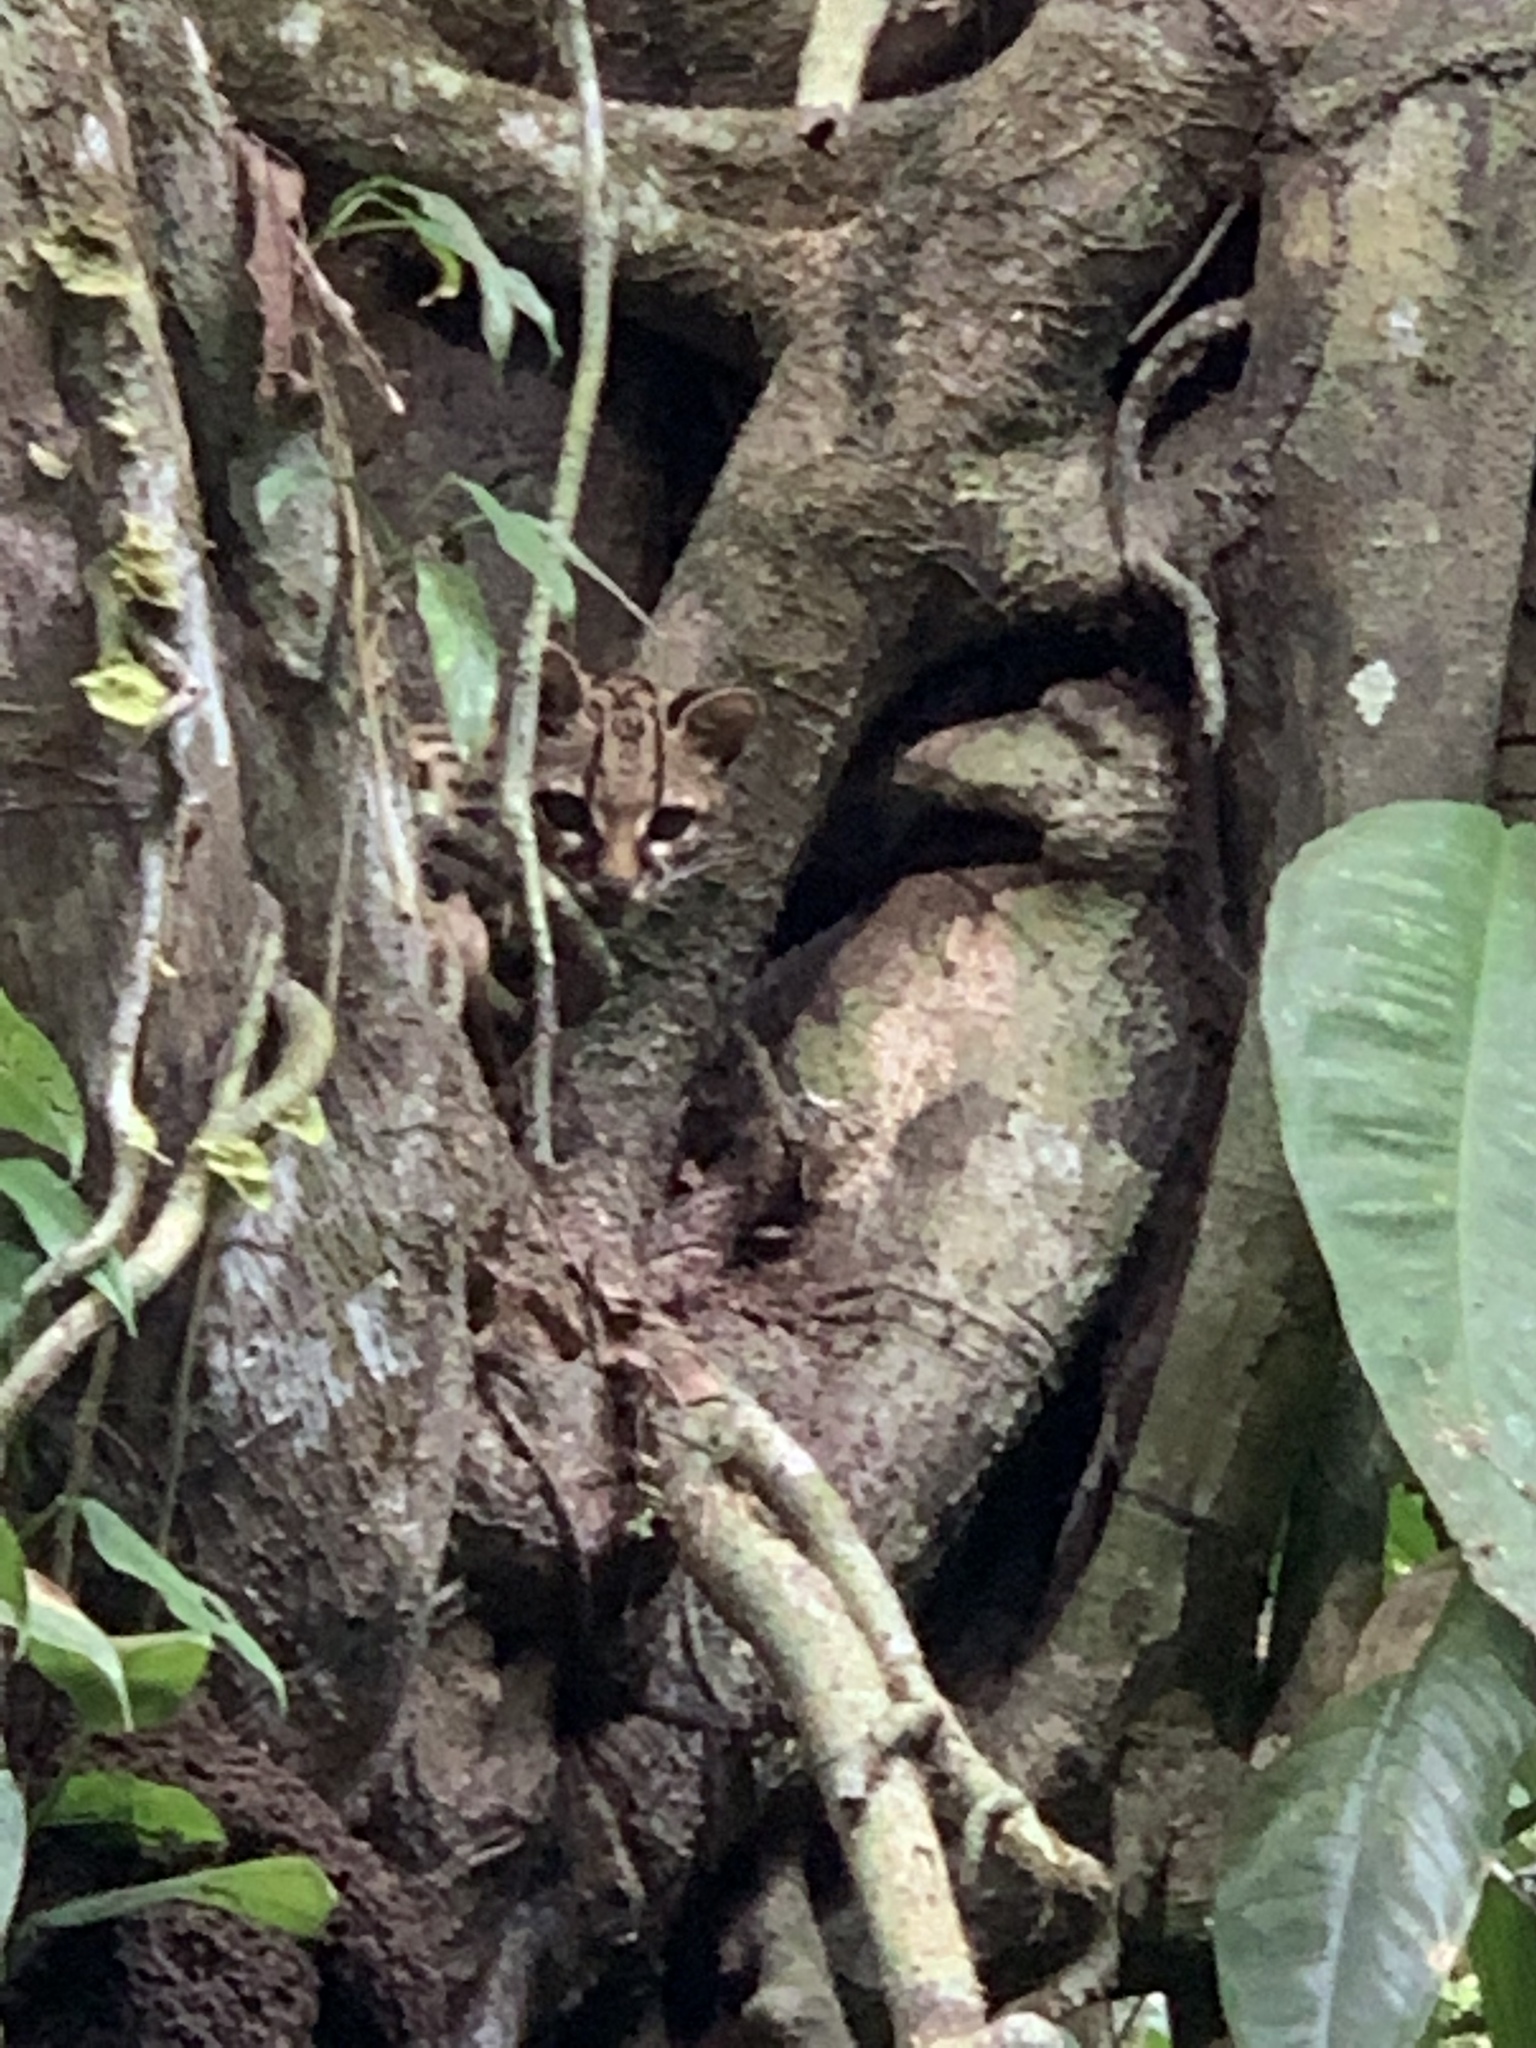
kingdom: Animalia
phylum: Chordata
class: Mammalia
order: Carnivora
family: Felidae
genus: Leopardus
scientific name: Leopardus wiedii
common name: Margay
